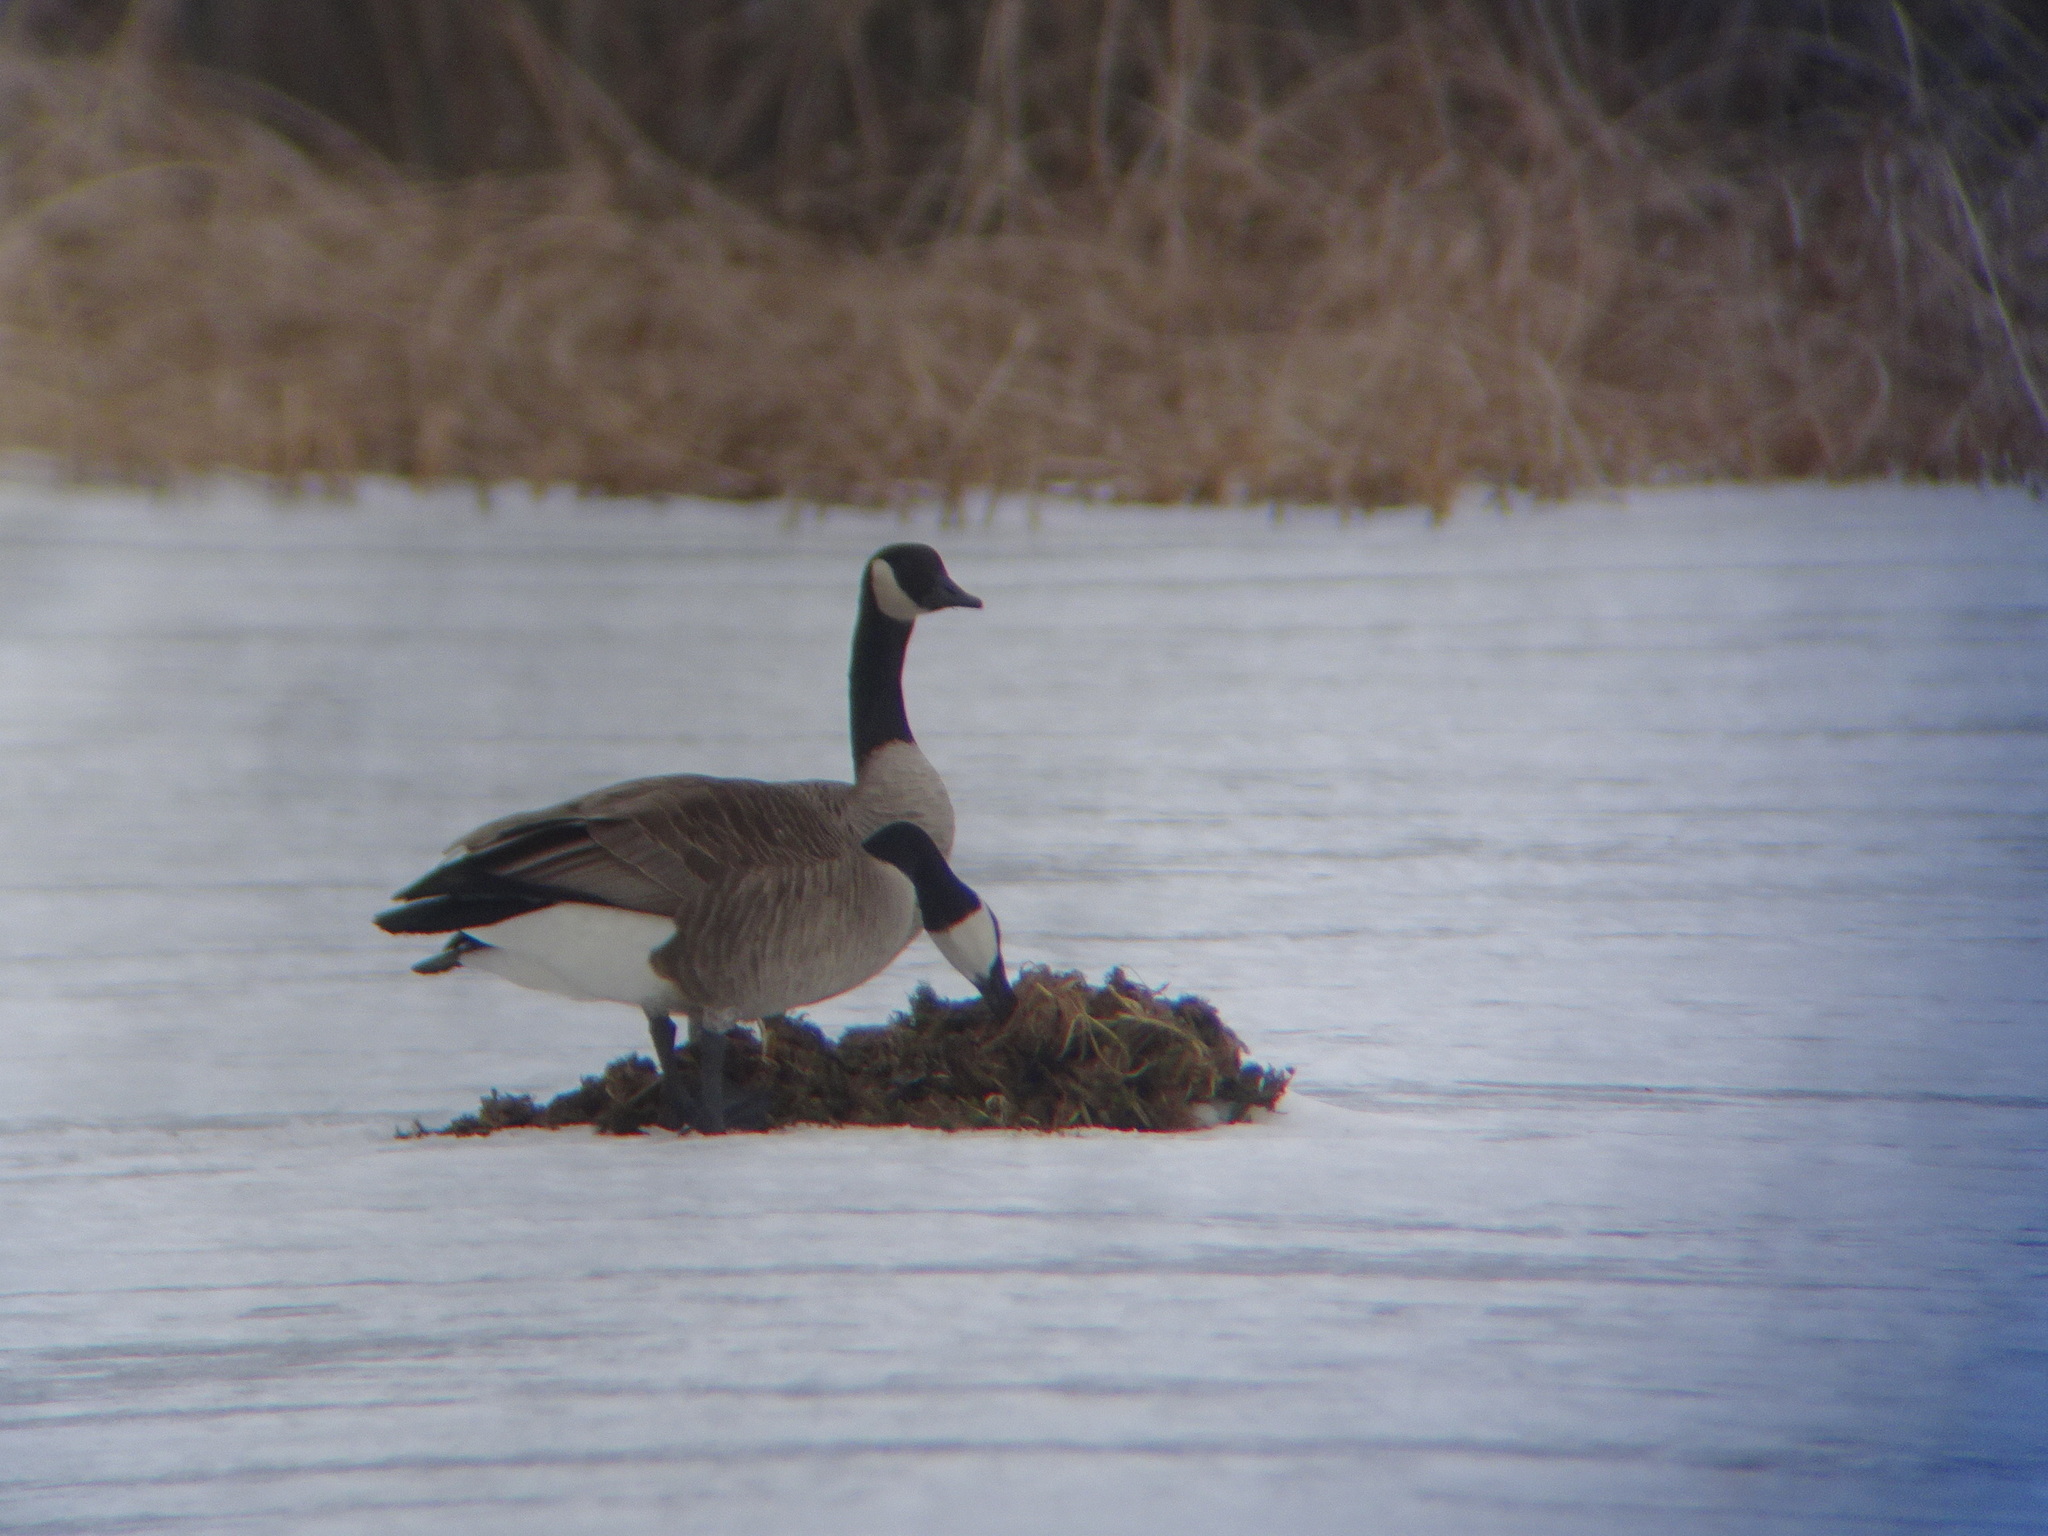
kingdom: Animalia
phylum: Chordata
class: Aves
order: Anseriformes
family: Anatidae
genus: Branta
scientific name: Branta canadensis
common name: Canada goose
